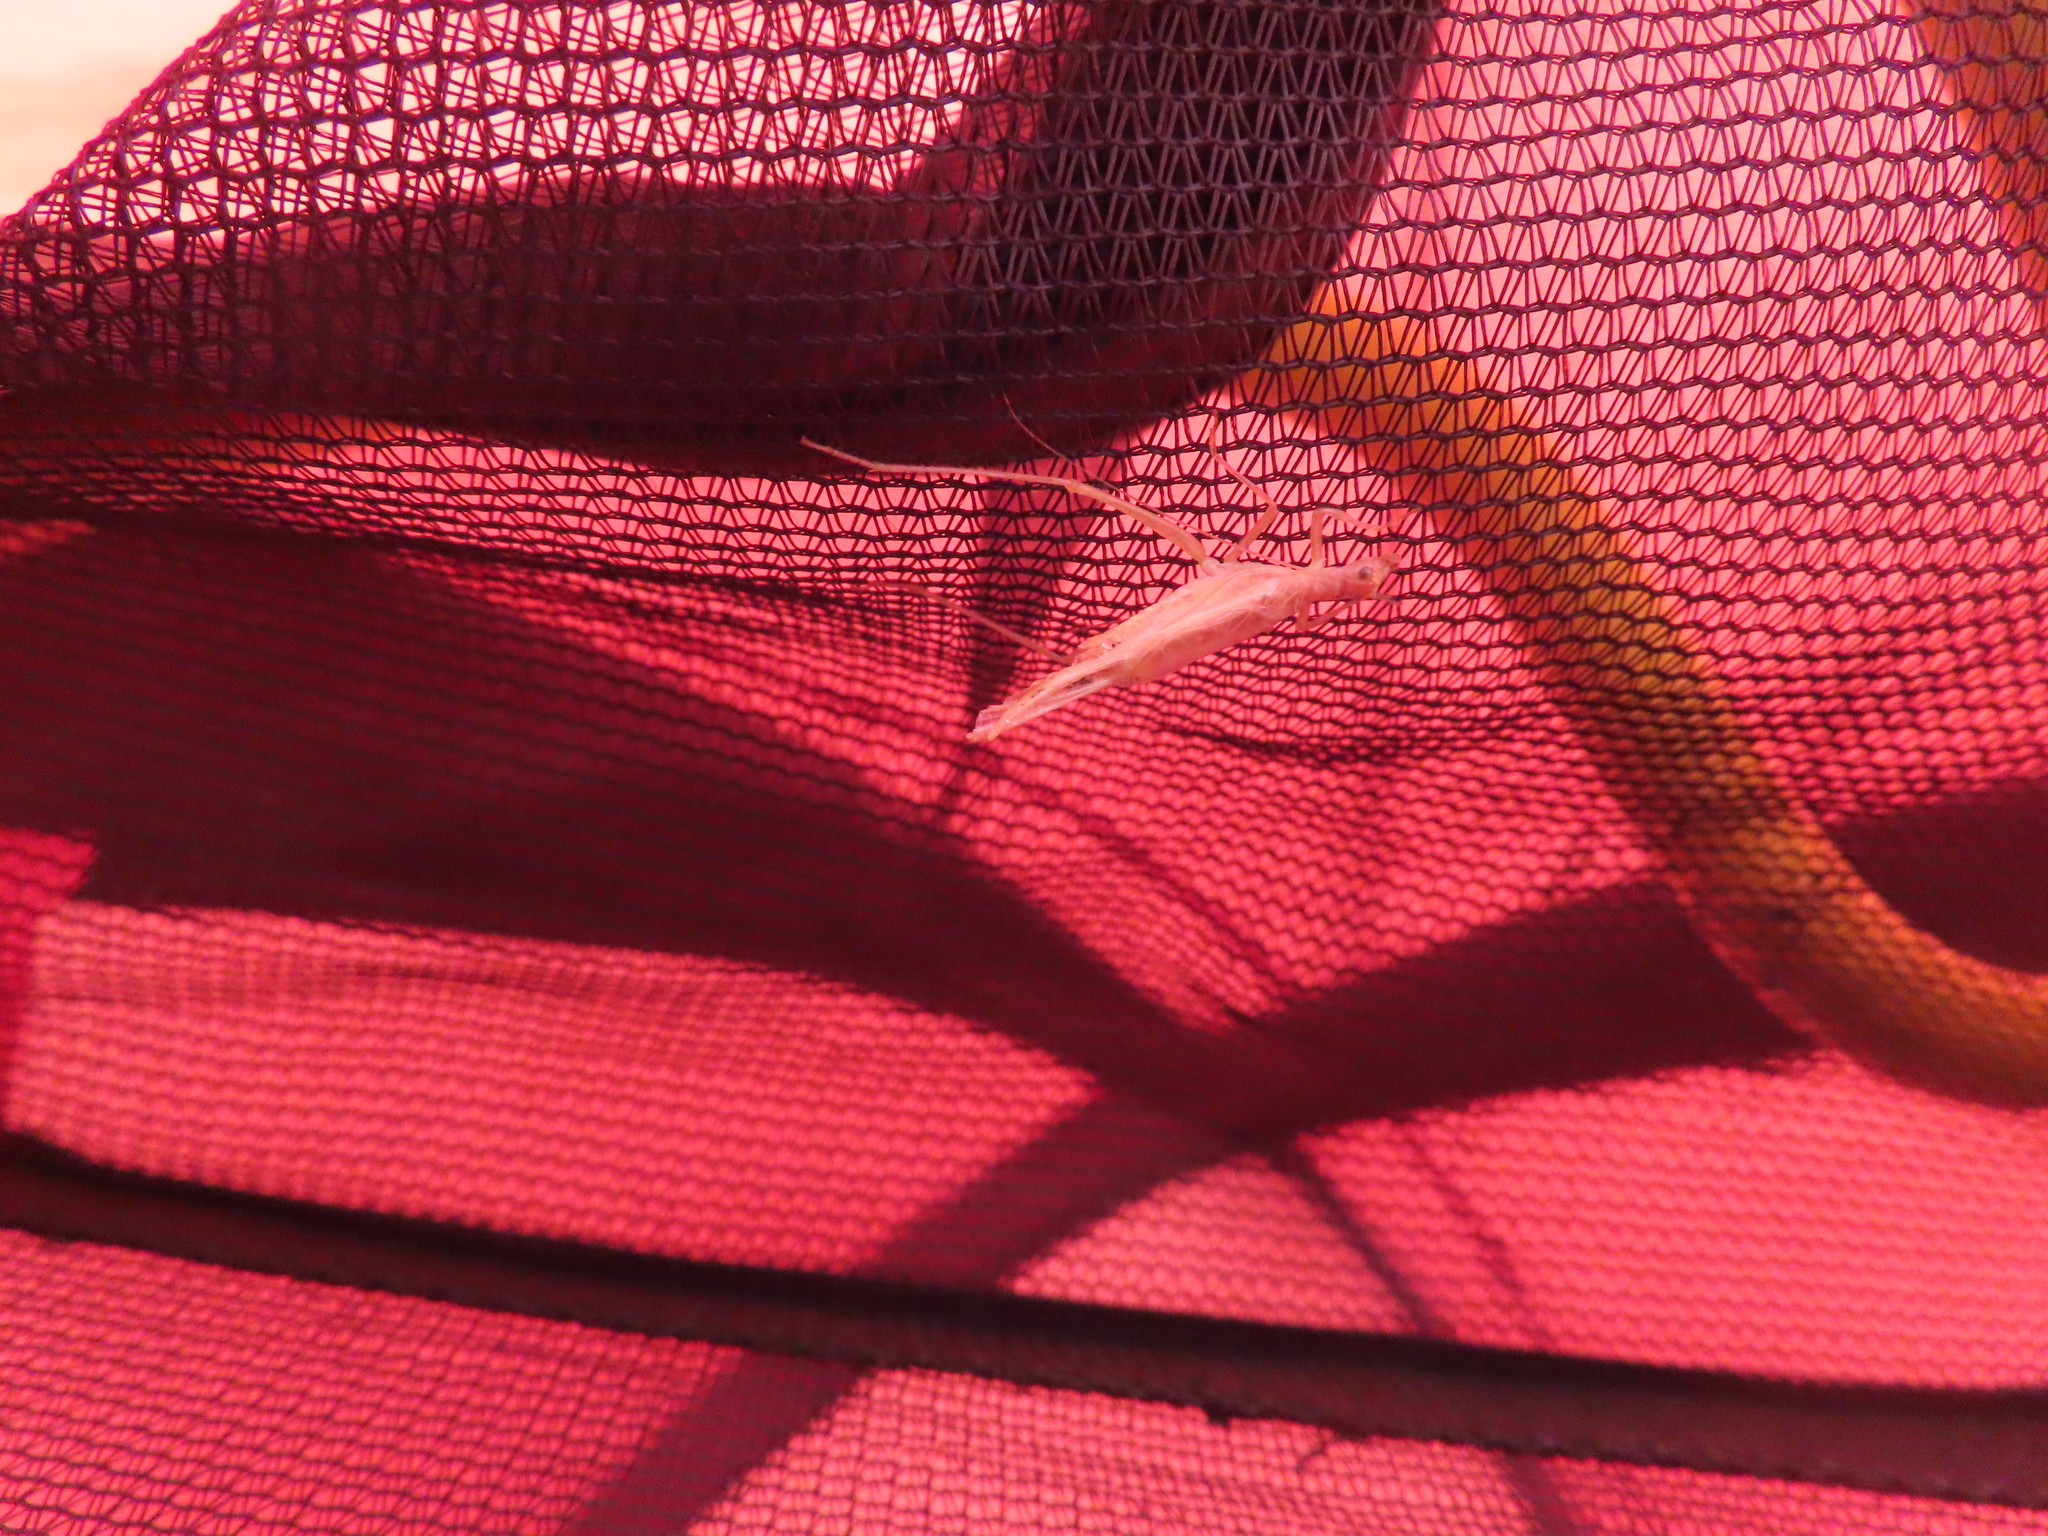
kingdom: Animalia
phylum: Arthropoda
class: Insecta
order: Orthoptera
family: Gryllidae
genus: Neoxabea
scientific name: Neoxabea bipunctata
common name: Two-spotted tree cricket
